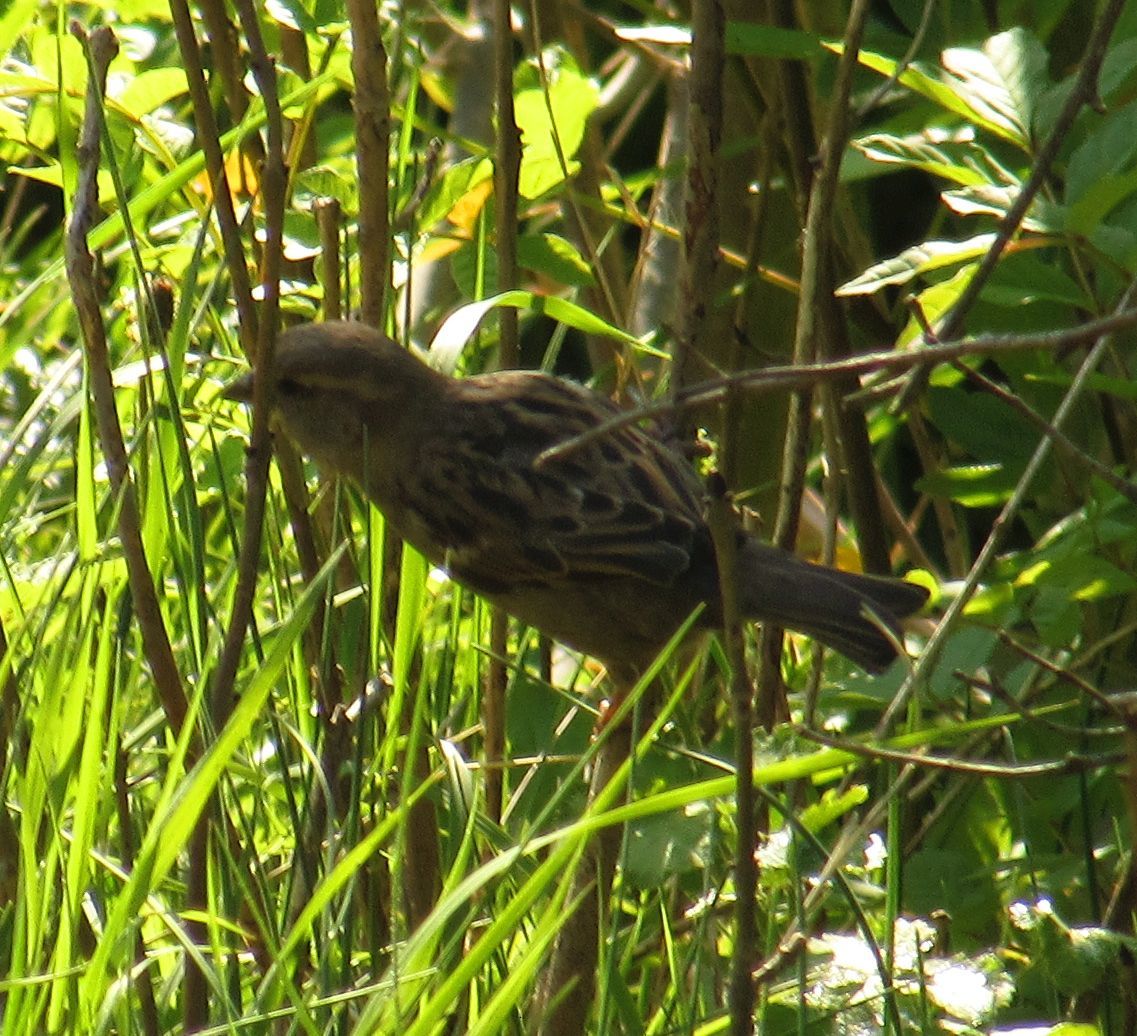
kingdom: Animalia
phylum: Chordata
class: Aves
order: Passeriformes
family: Passeridae
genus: Passer
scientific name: Passer domesticus
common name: House sparrow
